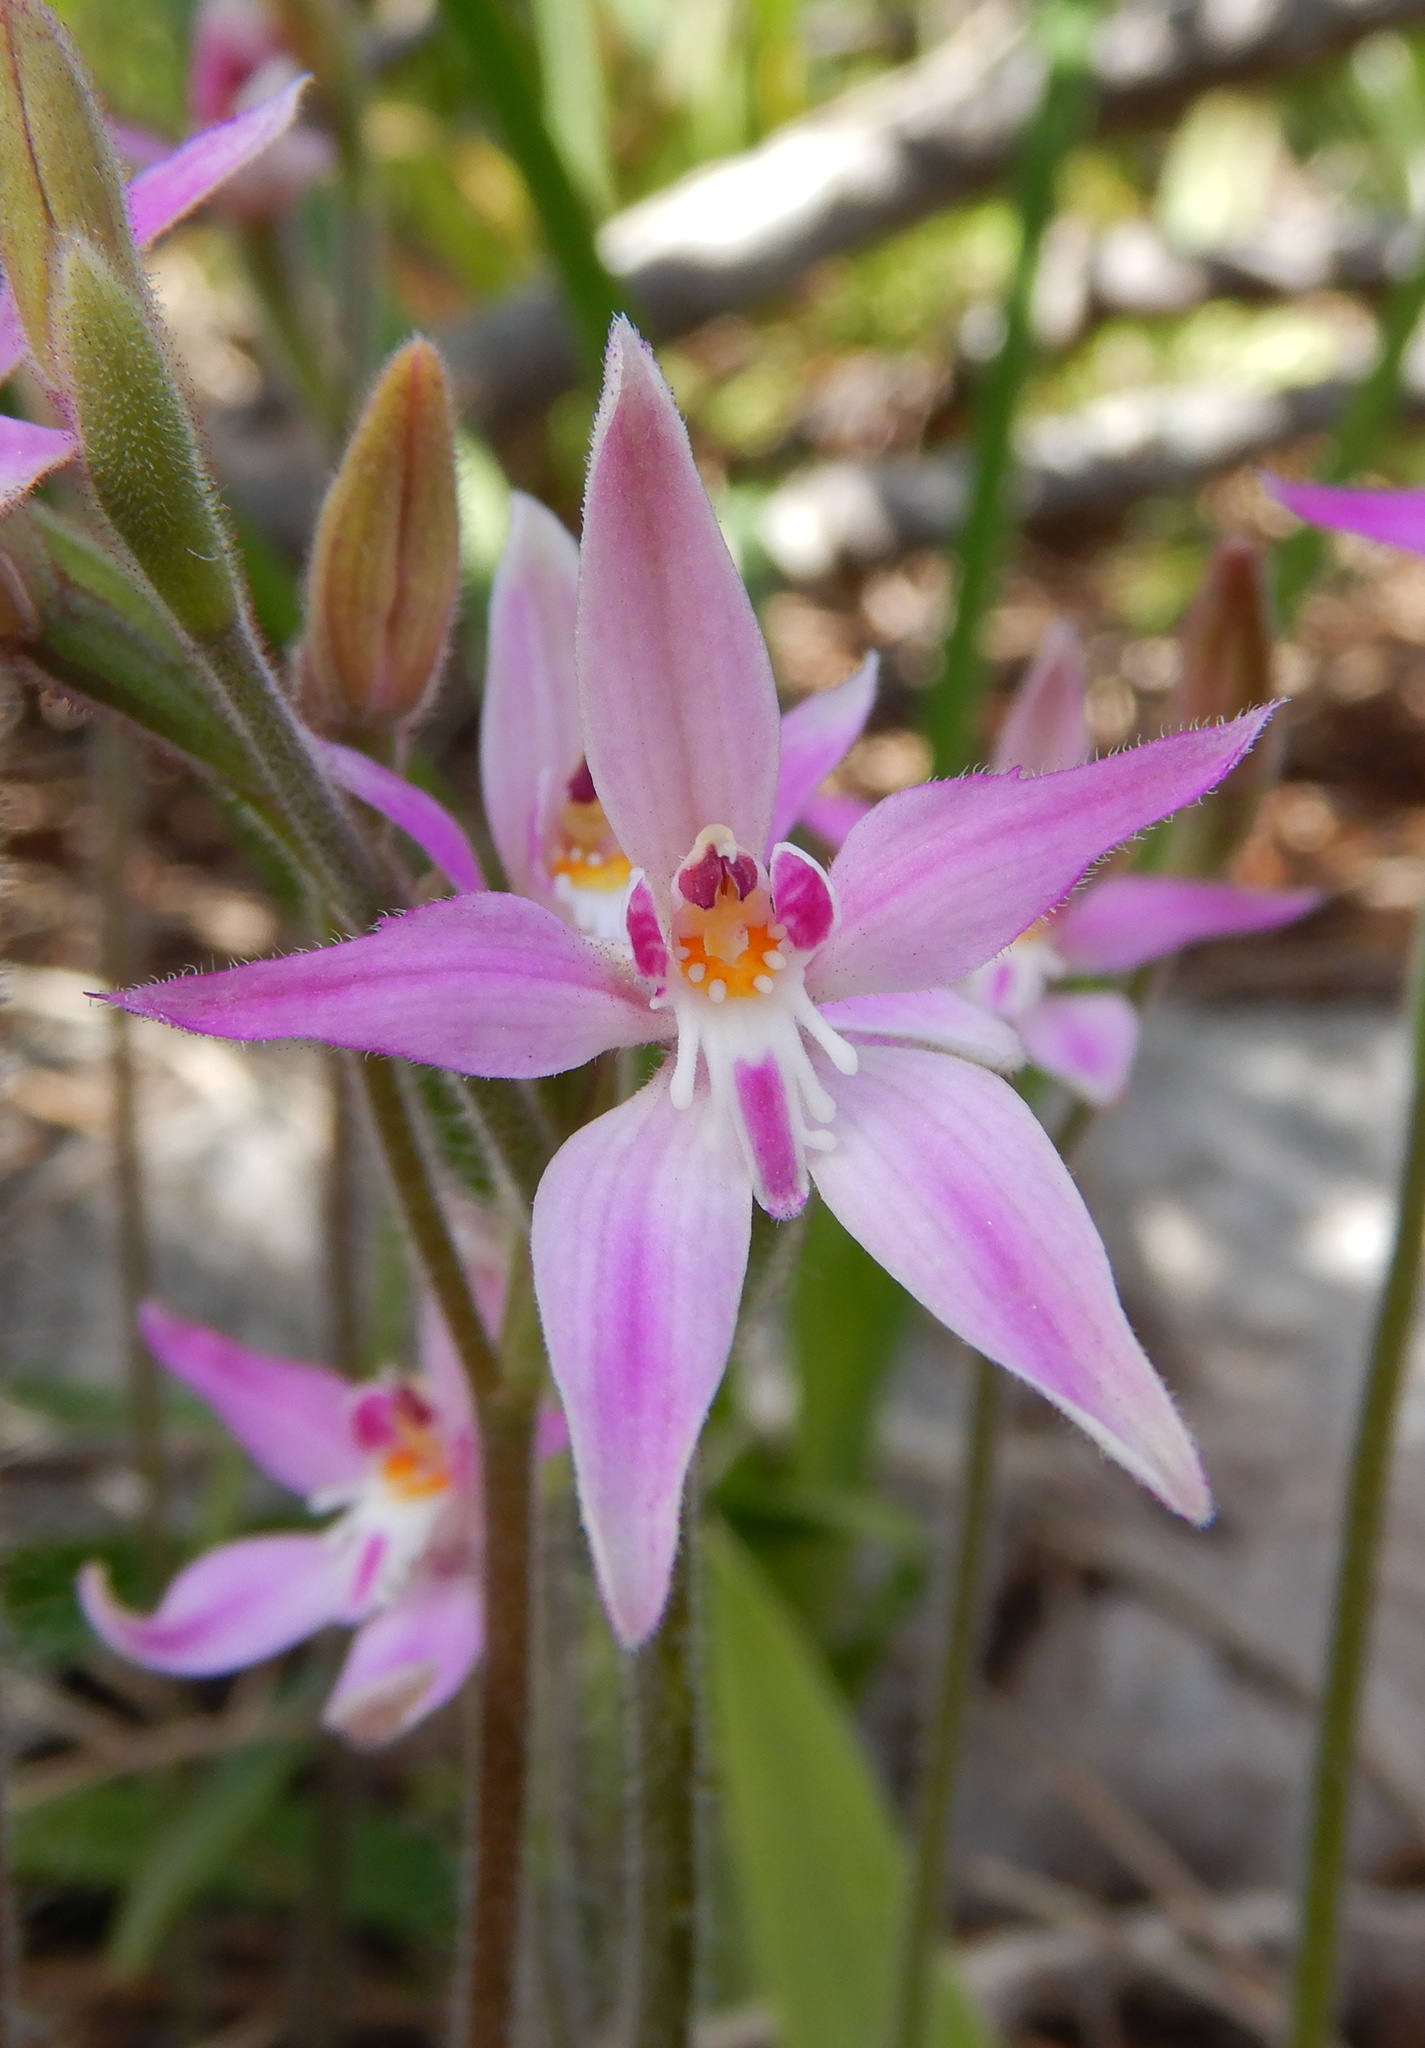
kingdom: Plantae
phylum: Tracheophyta
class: Liliopsida
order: Asparagales
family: Orchidaceae
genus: Caladenia
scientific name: Caladenia latifolia
